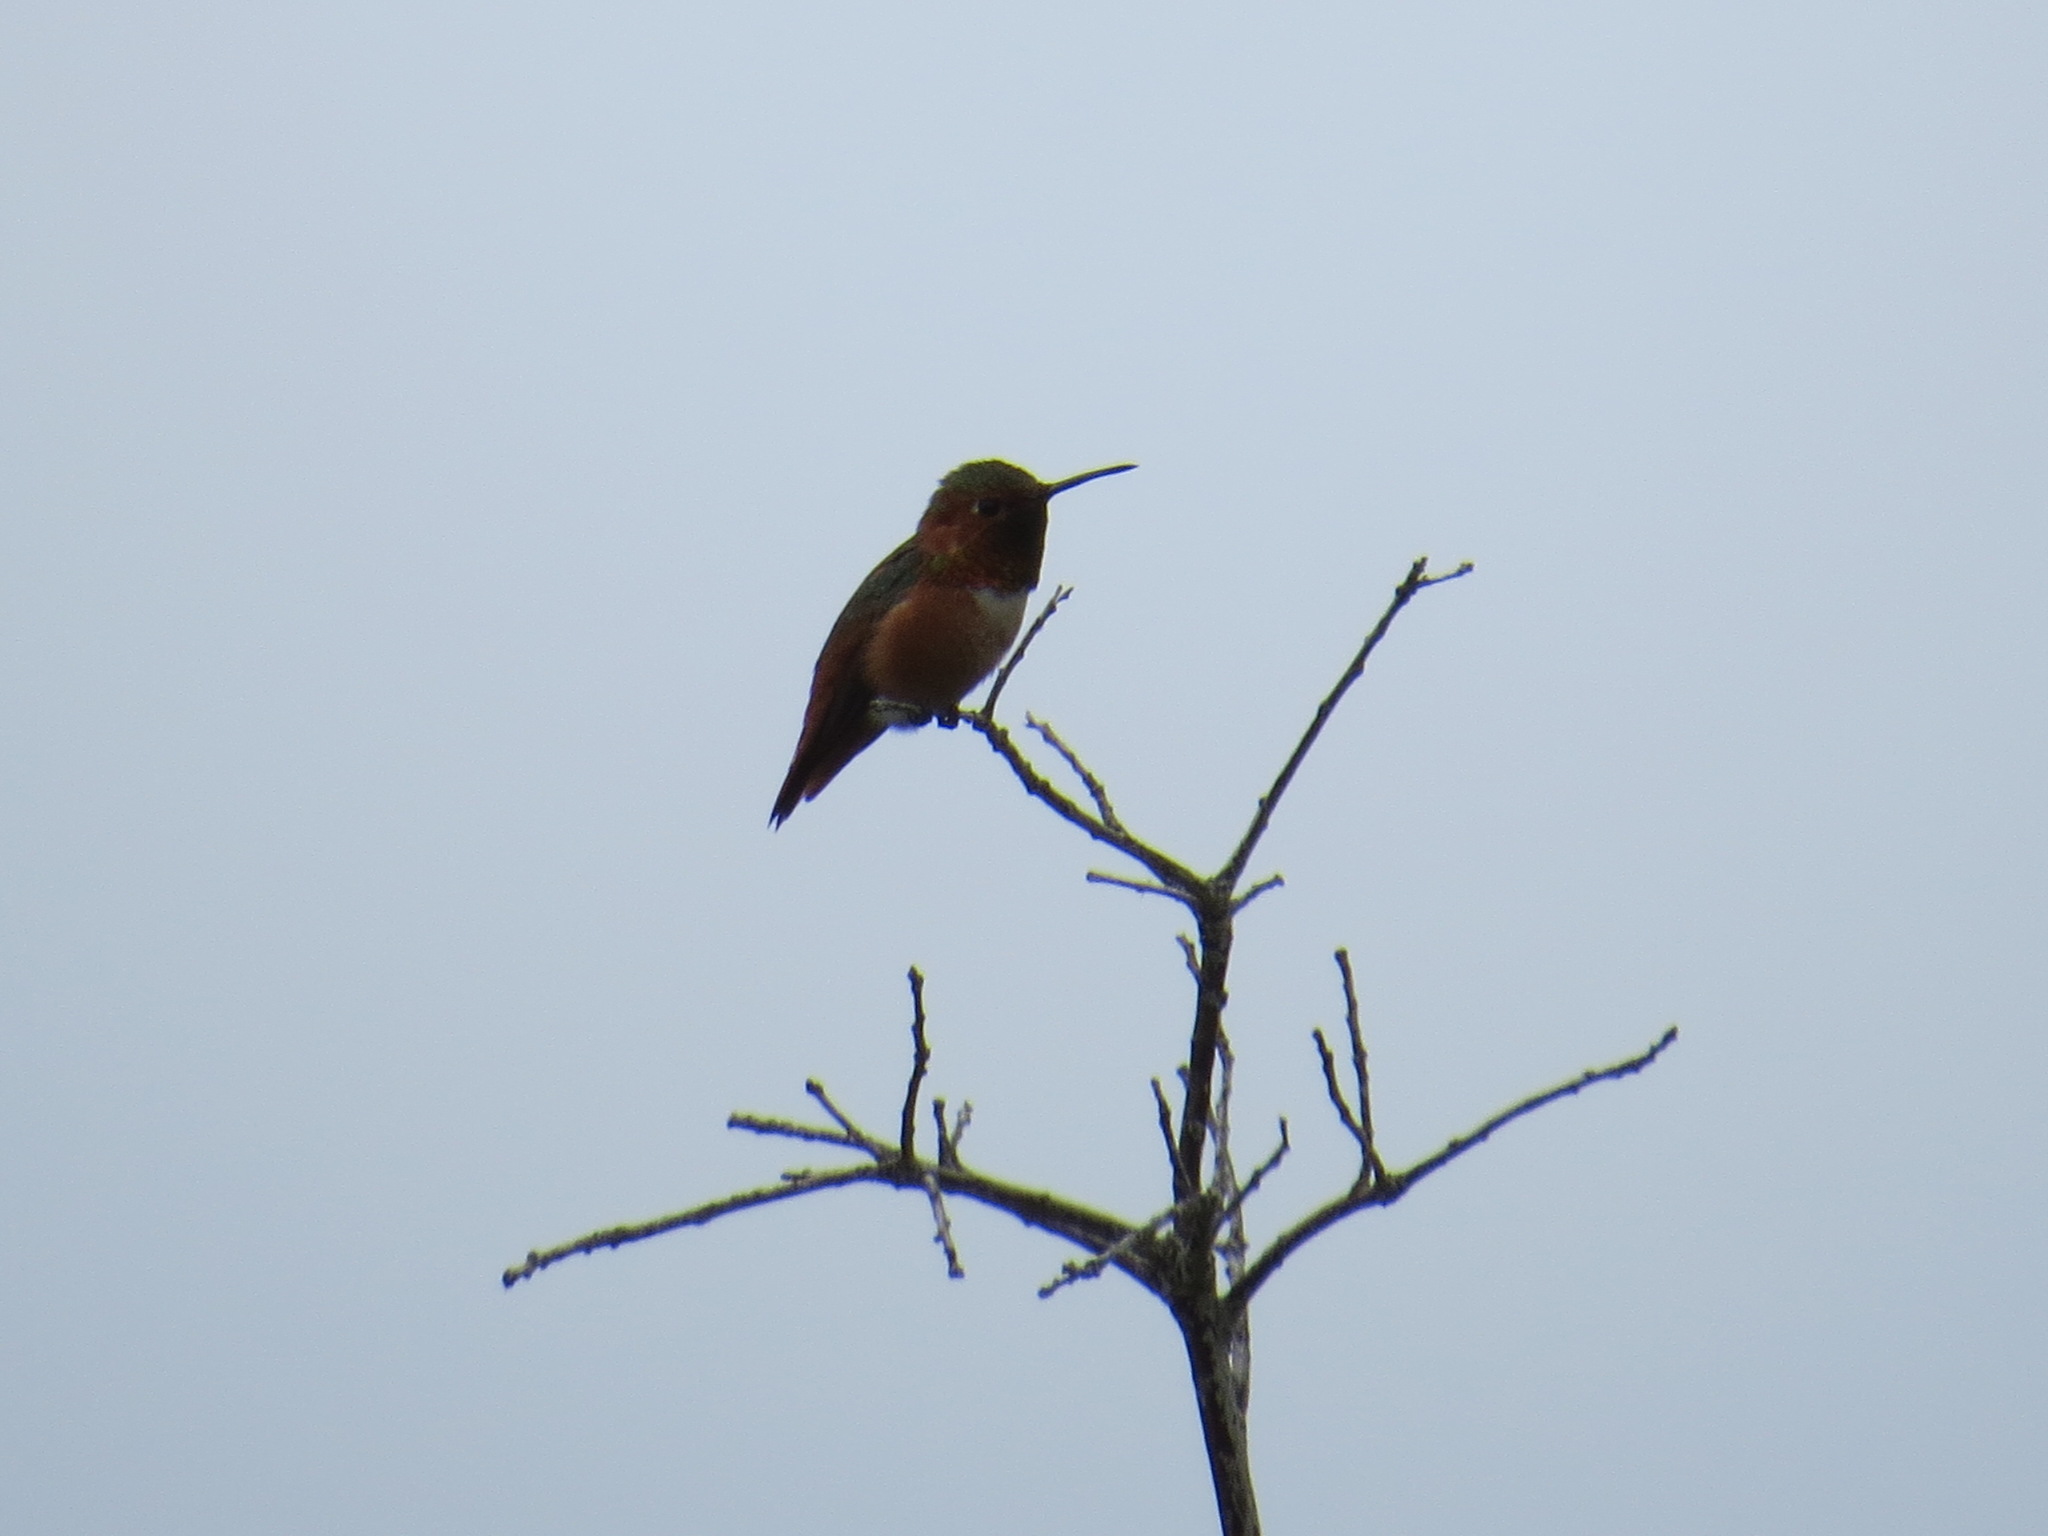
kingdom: Animalia
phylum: Chordata
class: Aves
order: Apodiformes
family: Trochilidae
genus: Selasphorus
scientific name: Selasphorus sasin
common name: Allen's hummingbird
